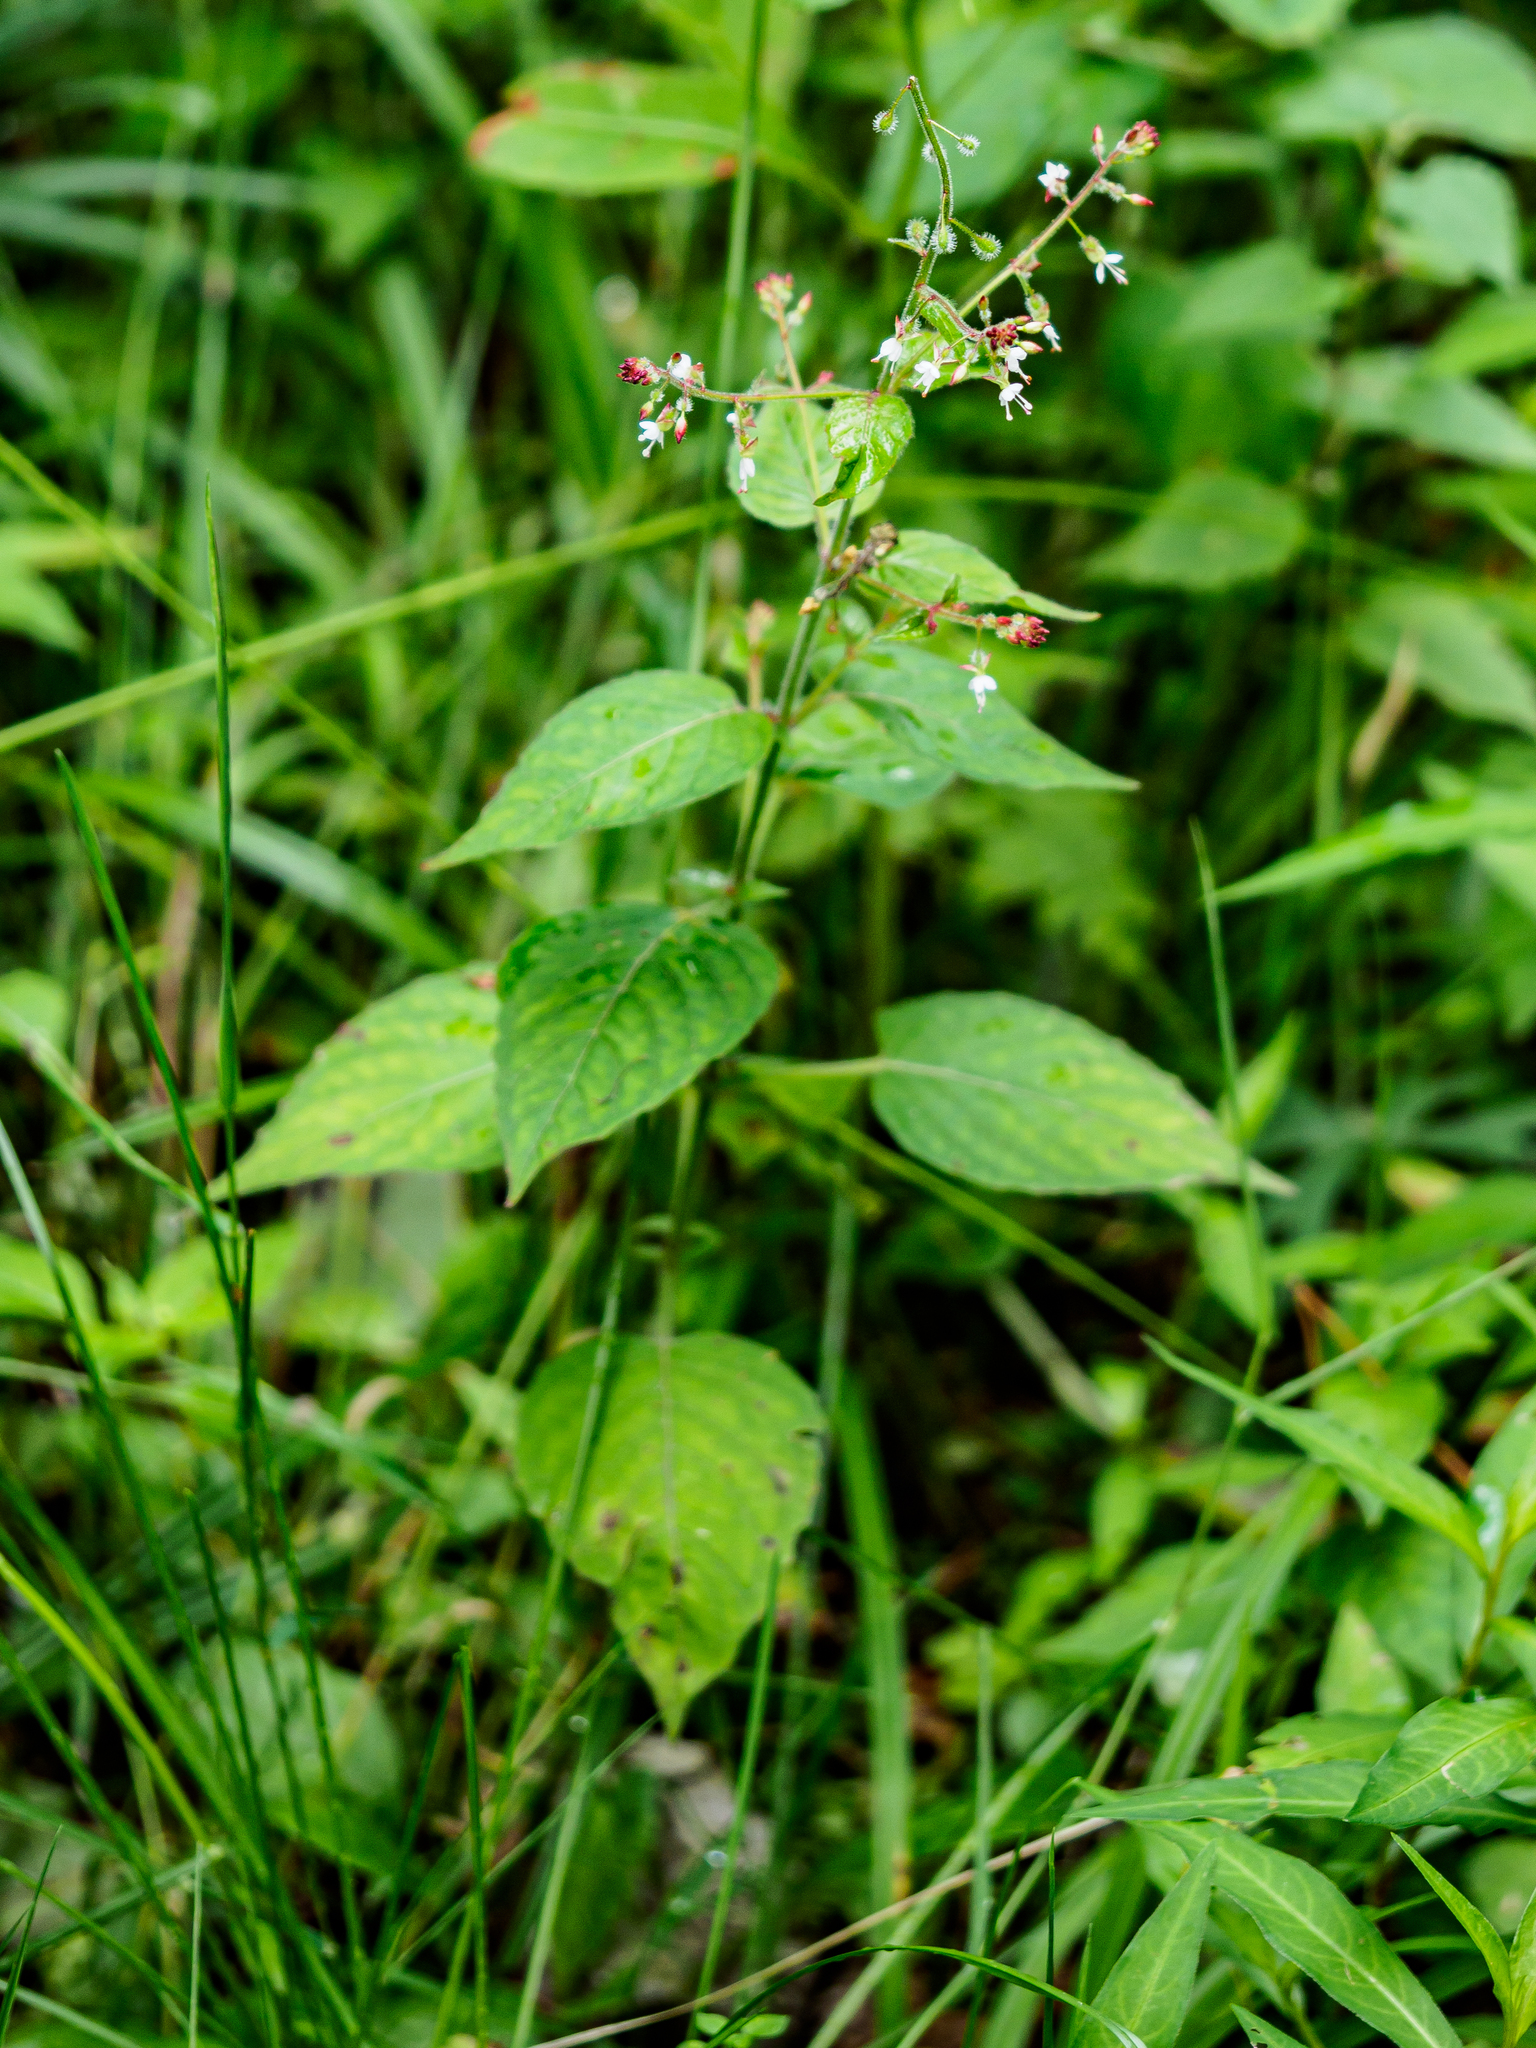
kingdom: Plantae
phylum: Tracheophyta
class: Magnoliopsida
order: Myrtales
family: Onagraceae
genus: Circaea
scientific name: Circaea lutetiana
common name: Enchanter's-nightshade
